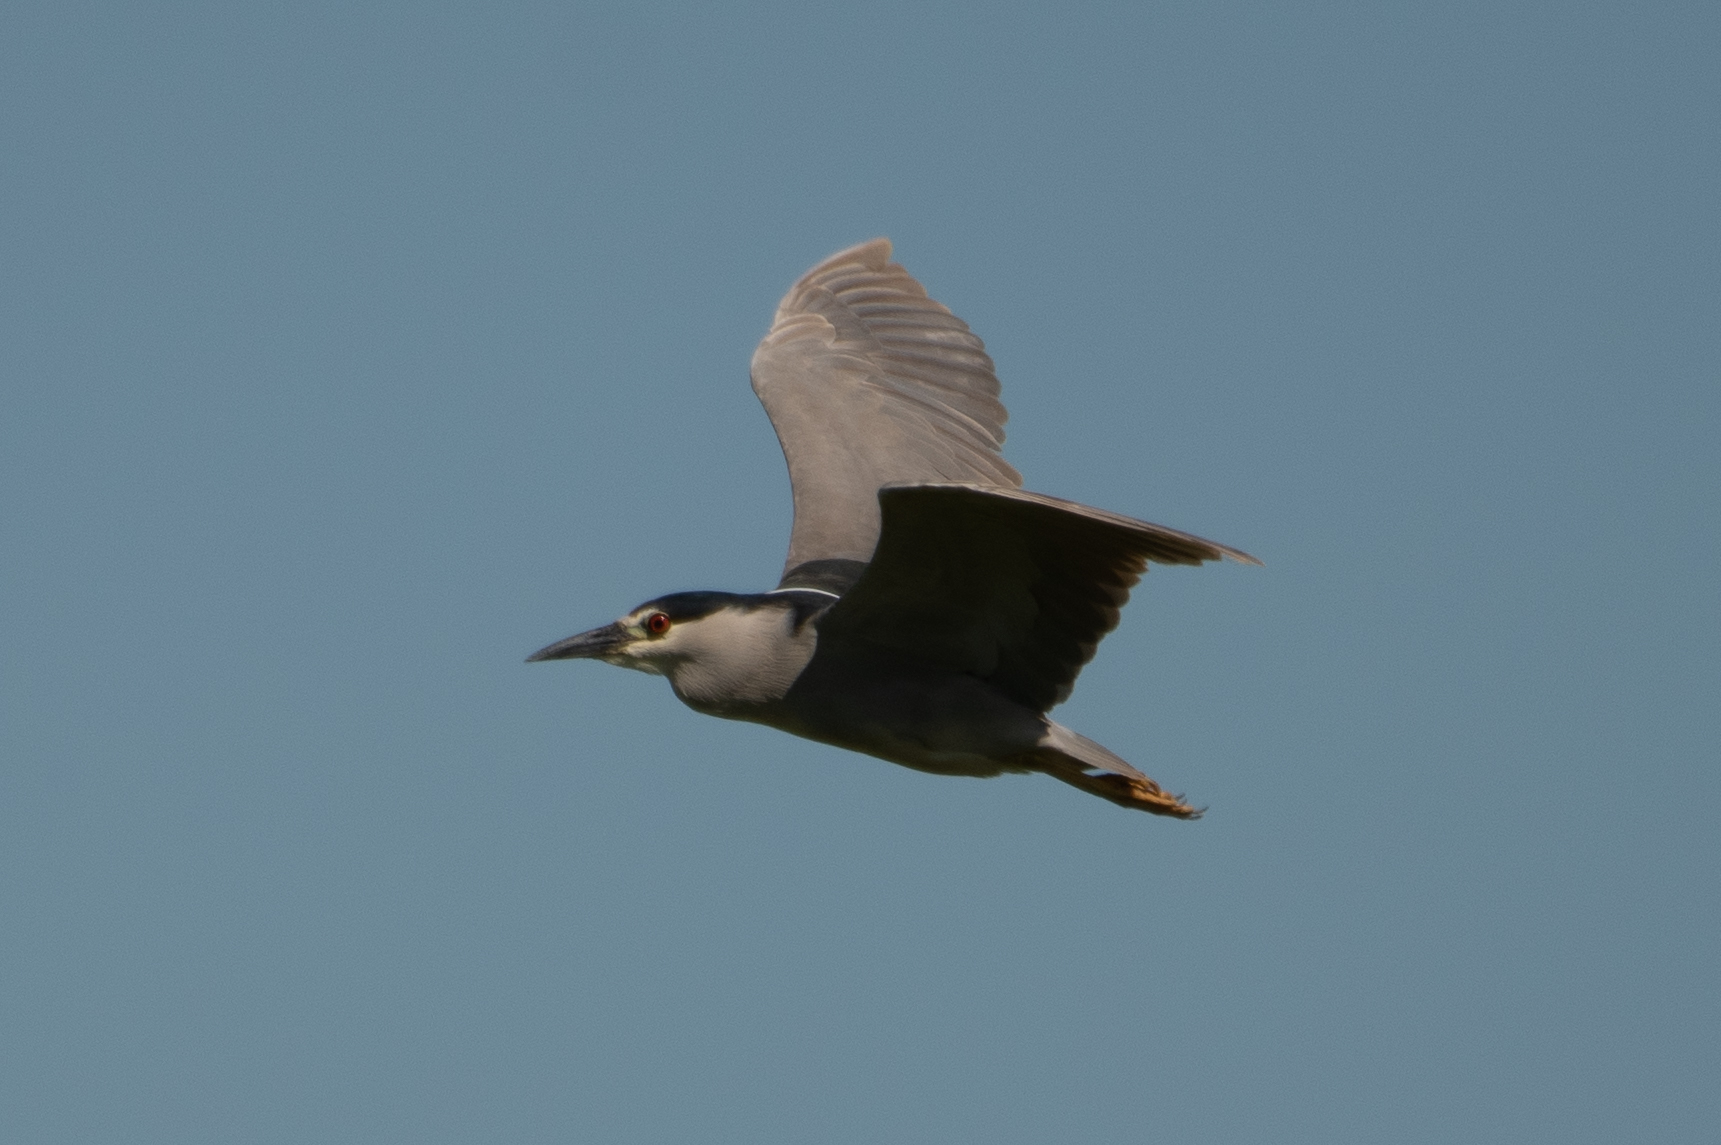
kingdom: Animalia
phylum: Chordata
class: Aves
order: Pelecaniformes
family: Ardeidae
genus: Nycticorax
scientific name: Nycticorax nycticorax
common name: Black-crowned night heron
